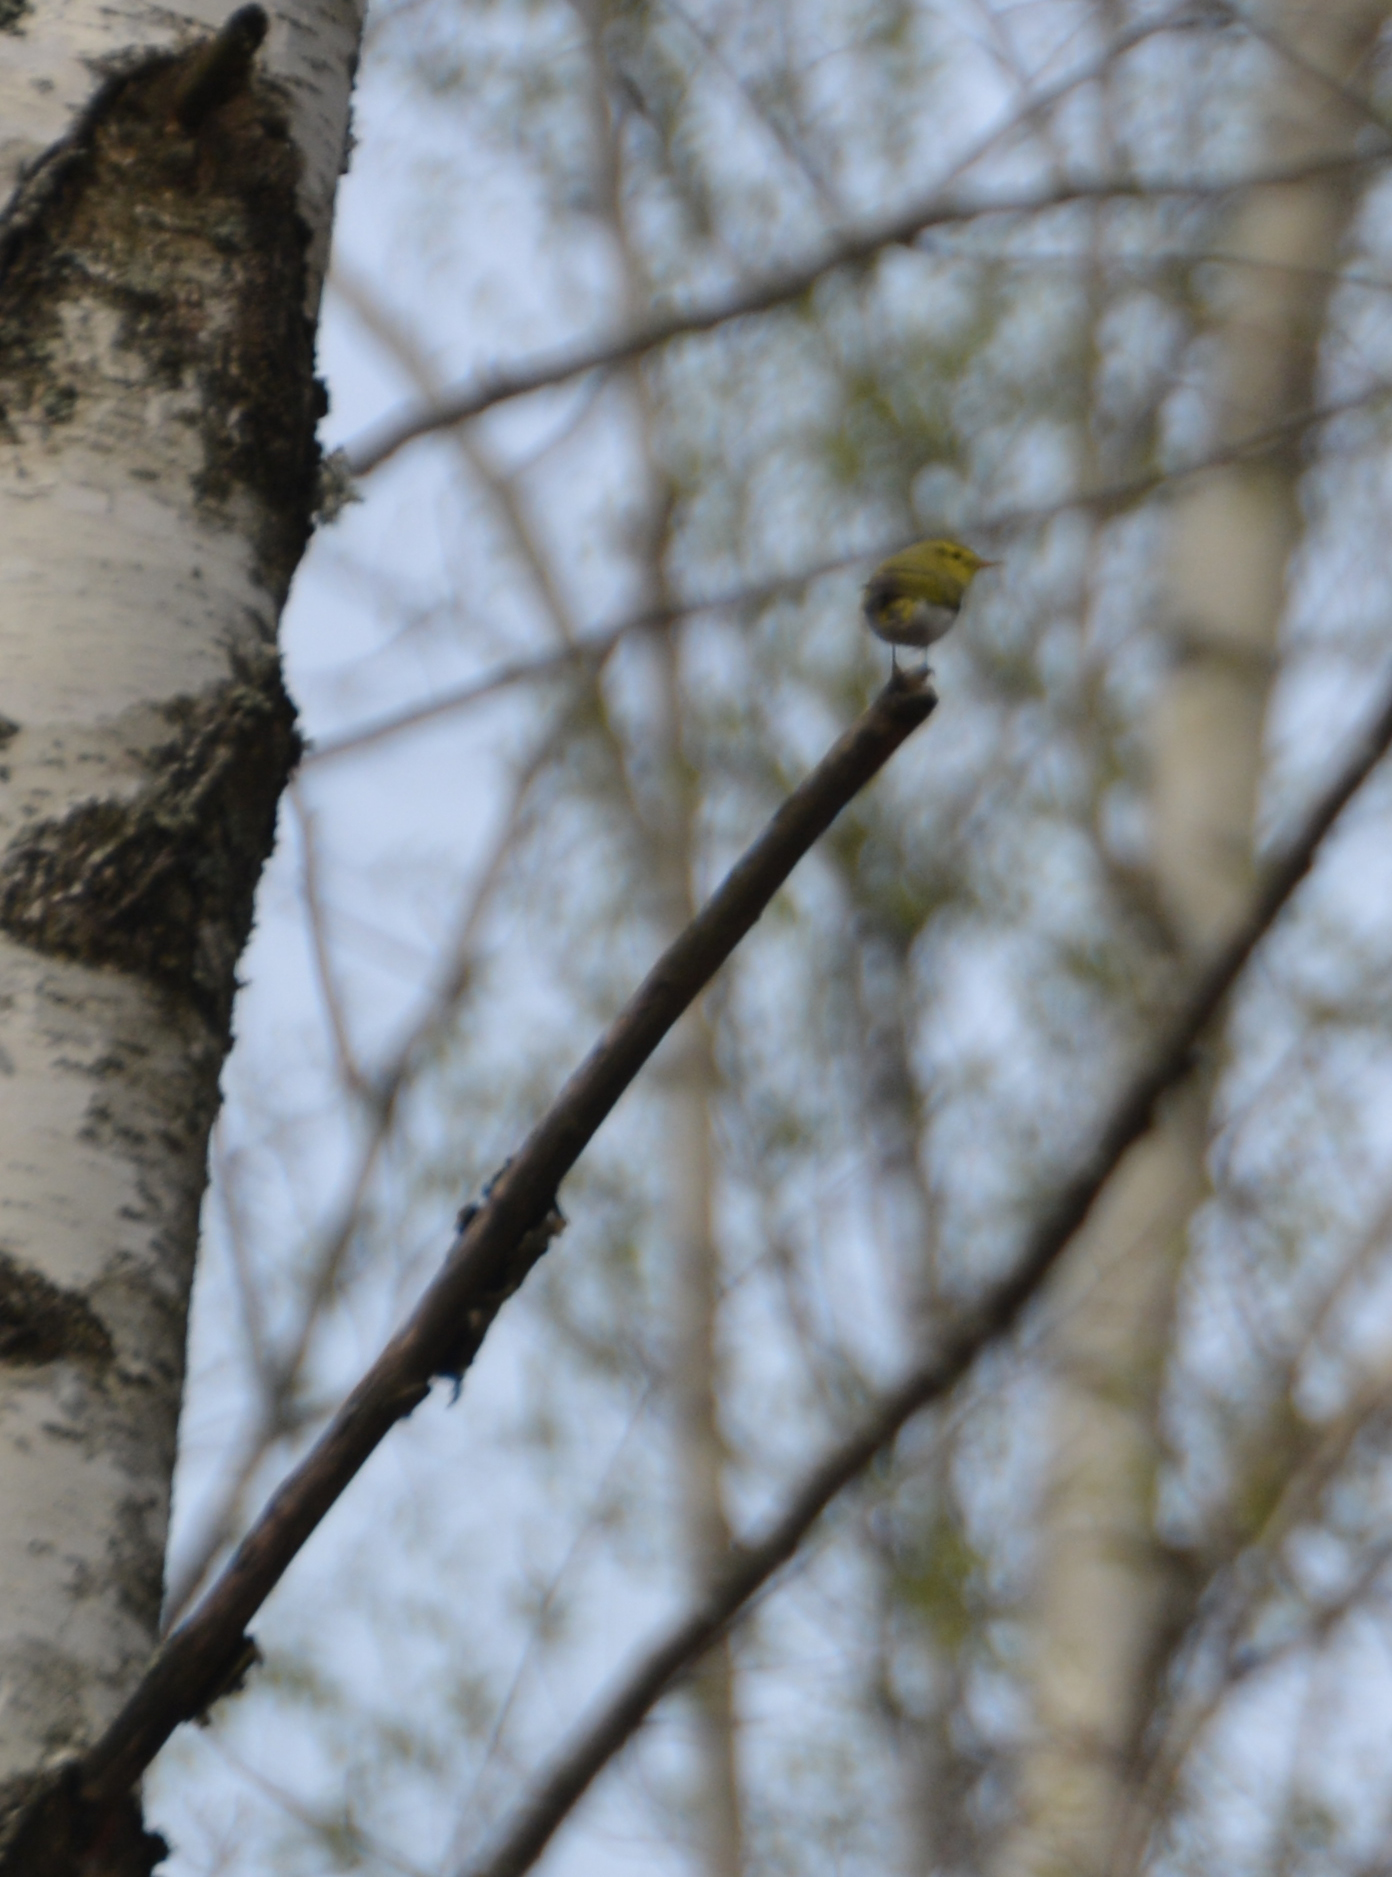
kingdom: Animalia
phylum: Chordata
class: Aves
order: Passeriformes
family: Phylloscopidae
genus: Phylloscopus
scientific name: Phylloscopus sibillatrix
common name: Wood warbler
